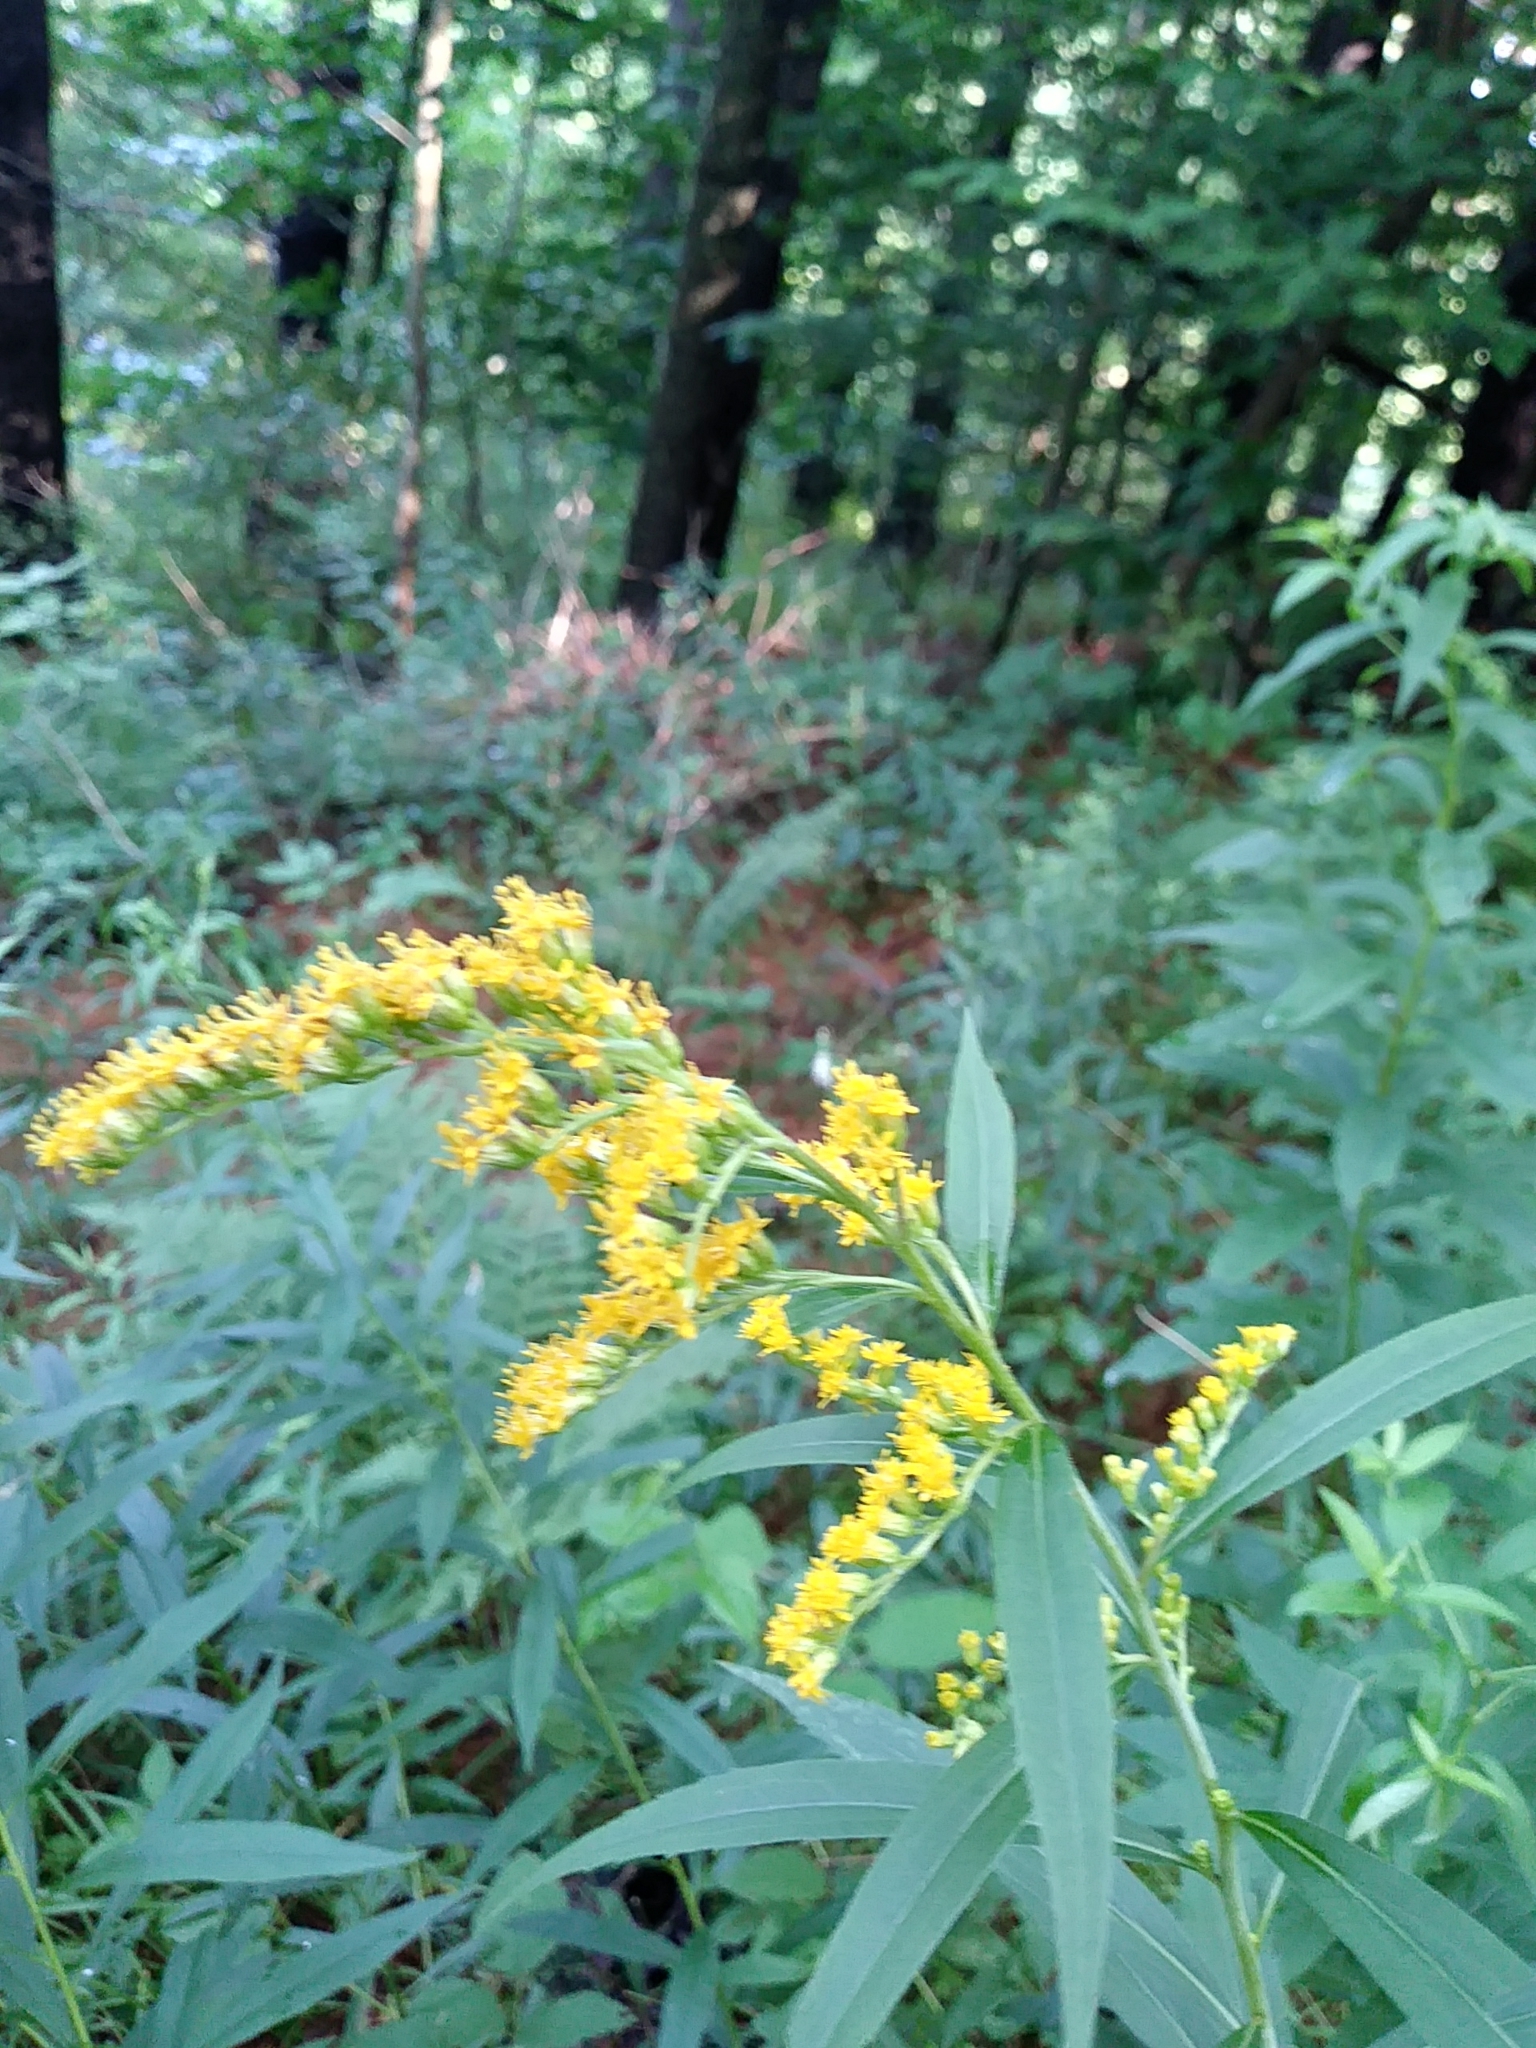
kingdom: Plantae
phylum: Tracheophyta
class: Magnoliopsida
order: Asterales
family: Asteraceae
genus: Solidago
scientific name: Solidago gigantea
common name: Giant goldenrod
